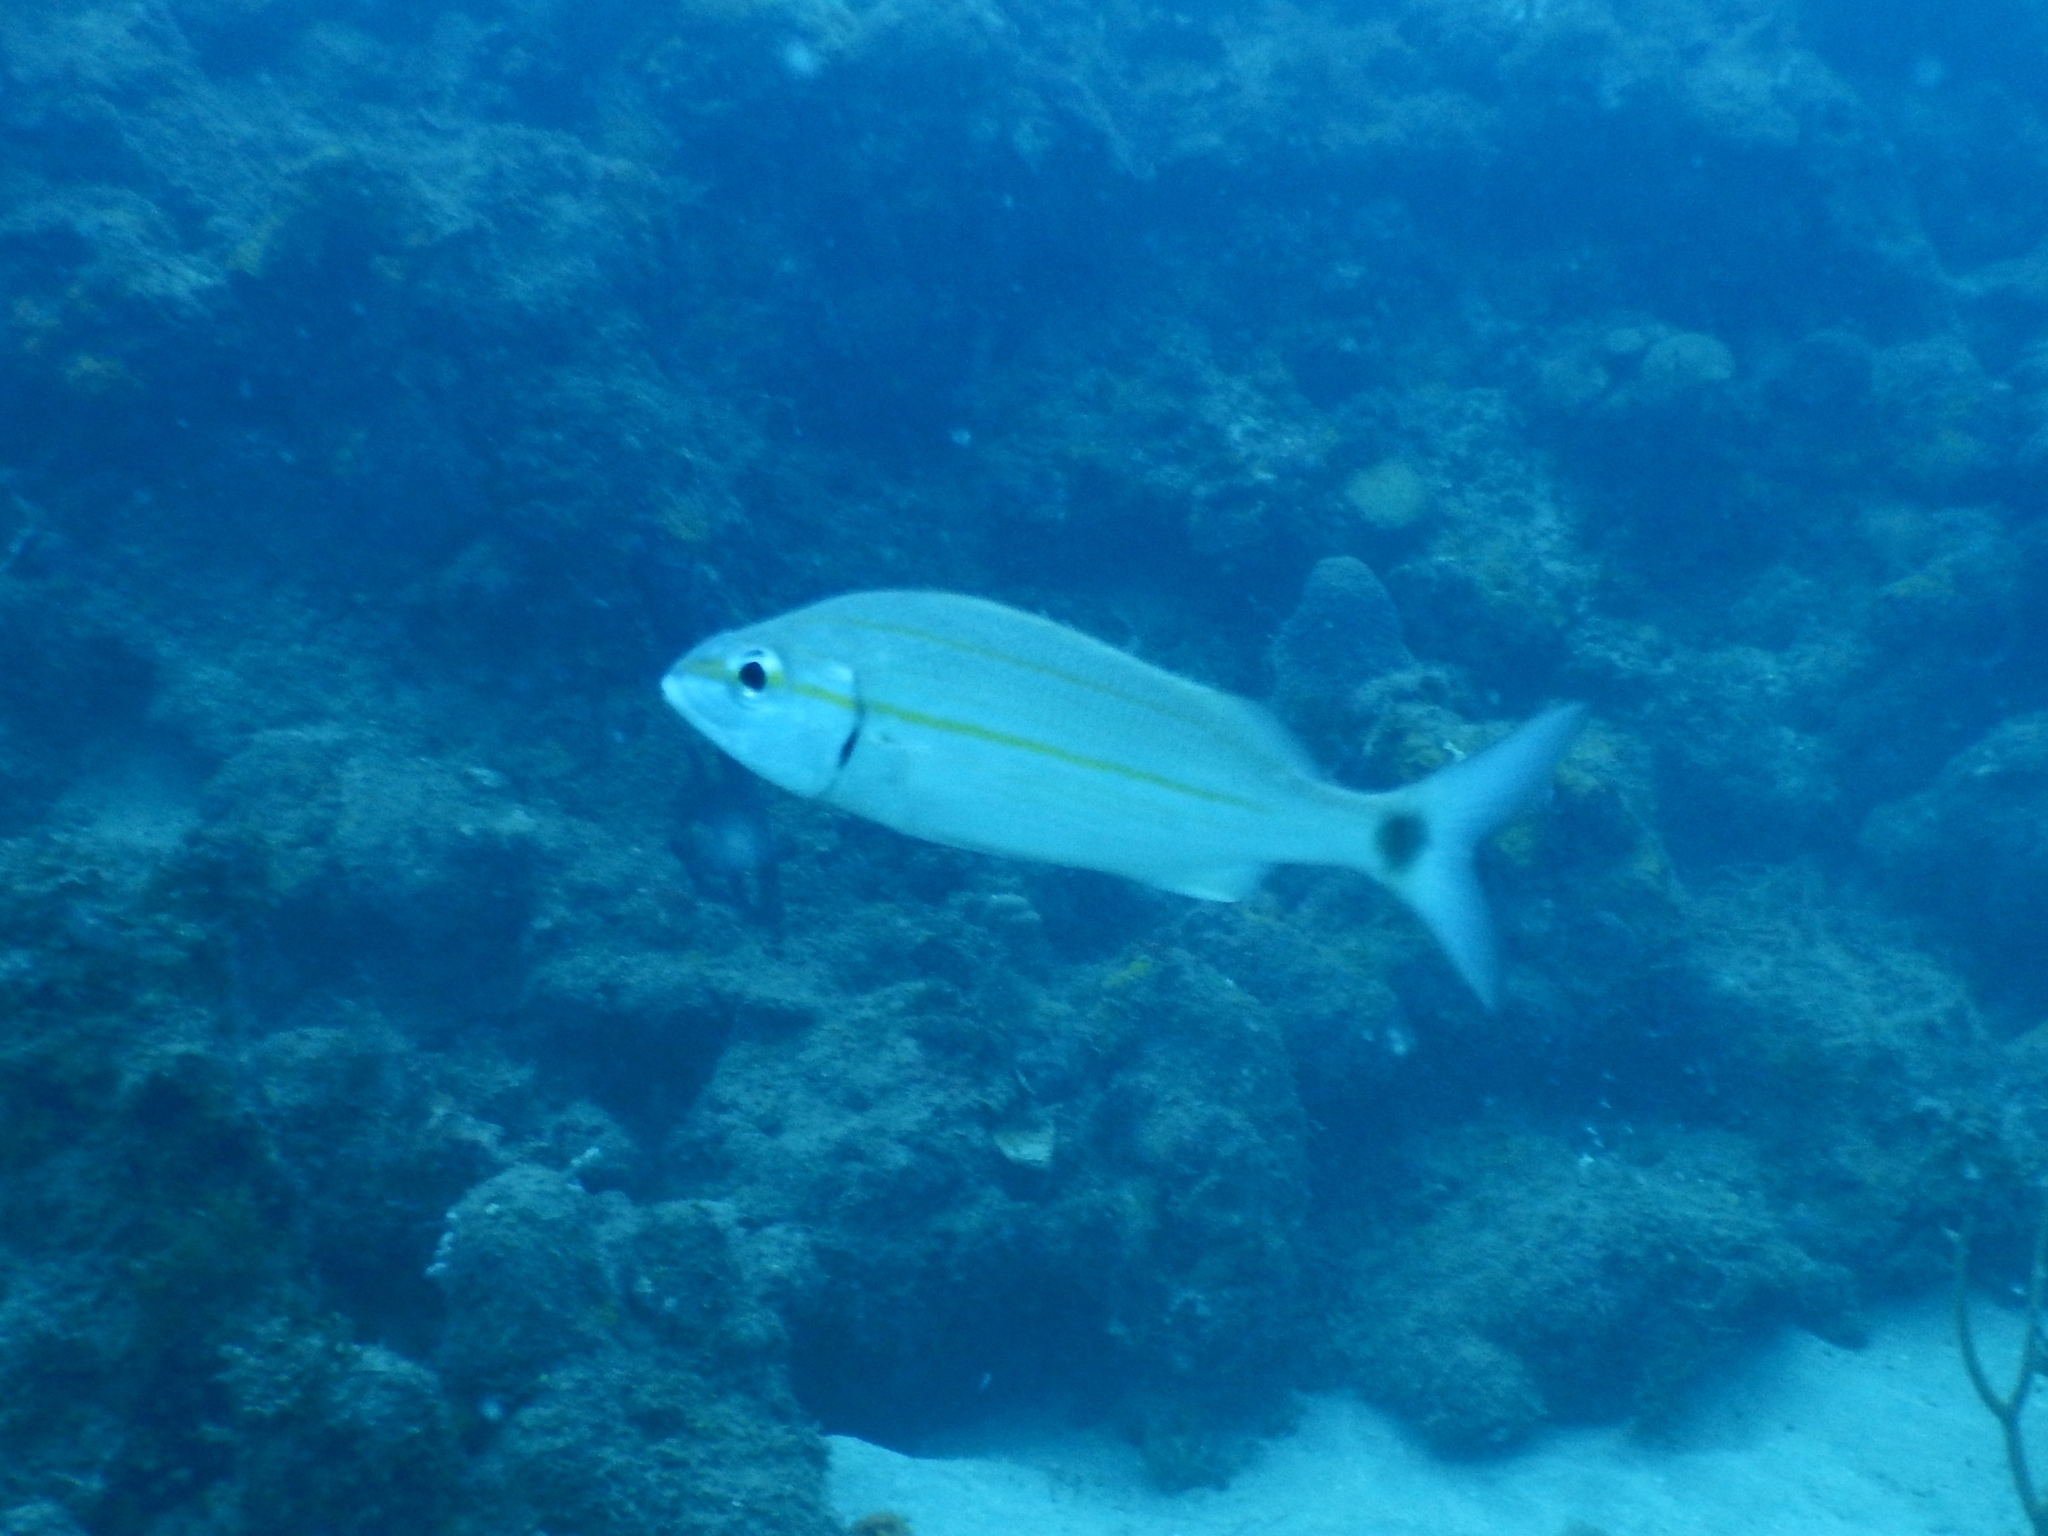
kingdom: Animalia
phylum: Chordata
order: Perciformes
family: Haemulidae
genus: Haemulon
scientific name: Haemulon aurolineatum
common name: Tomtate
